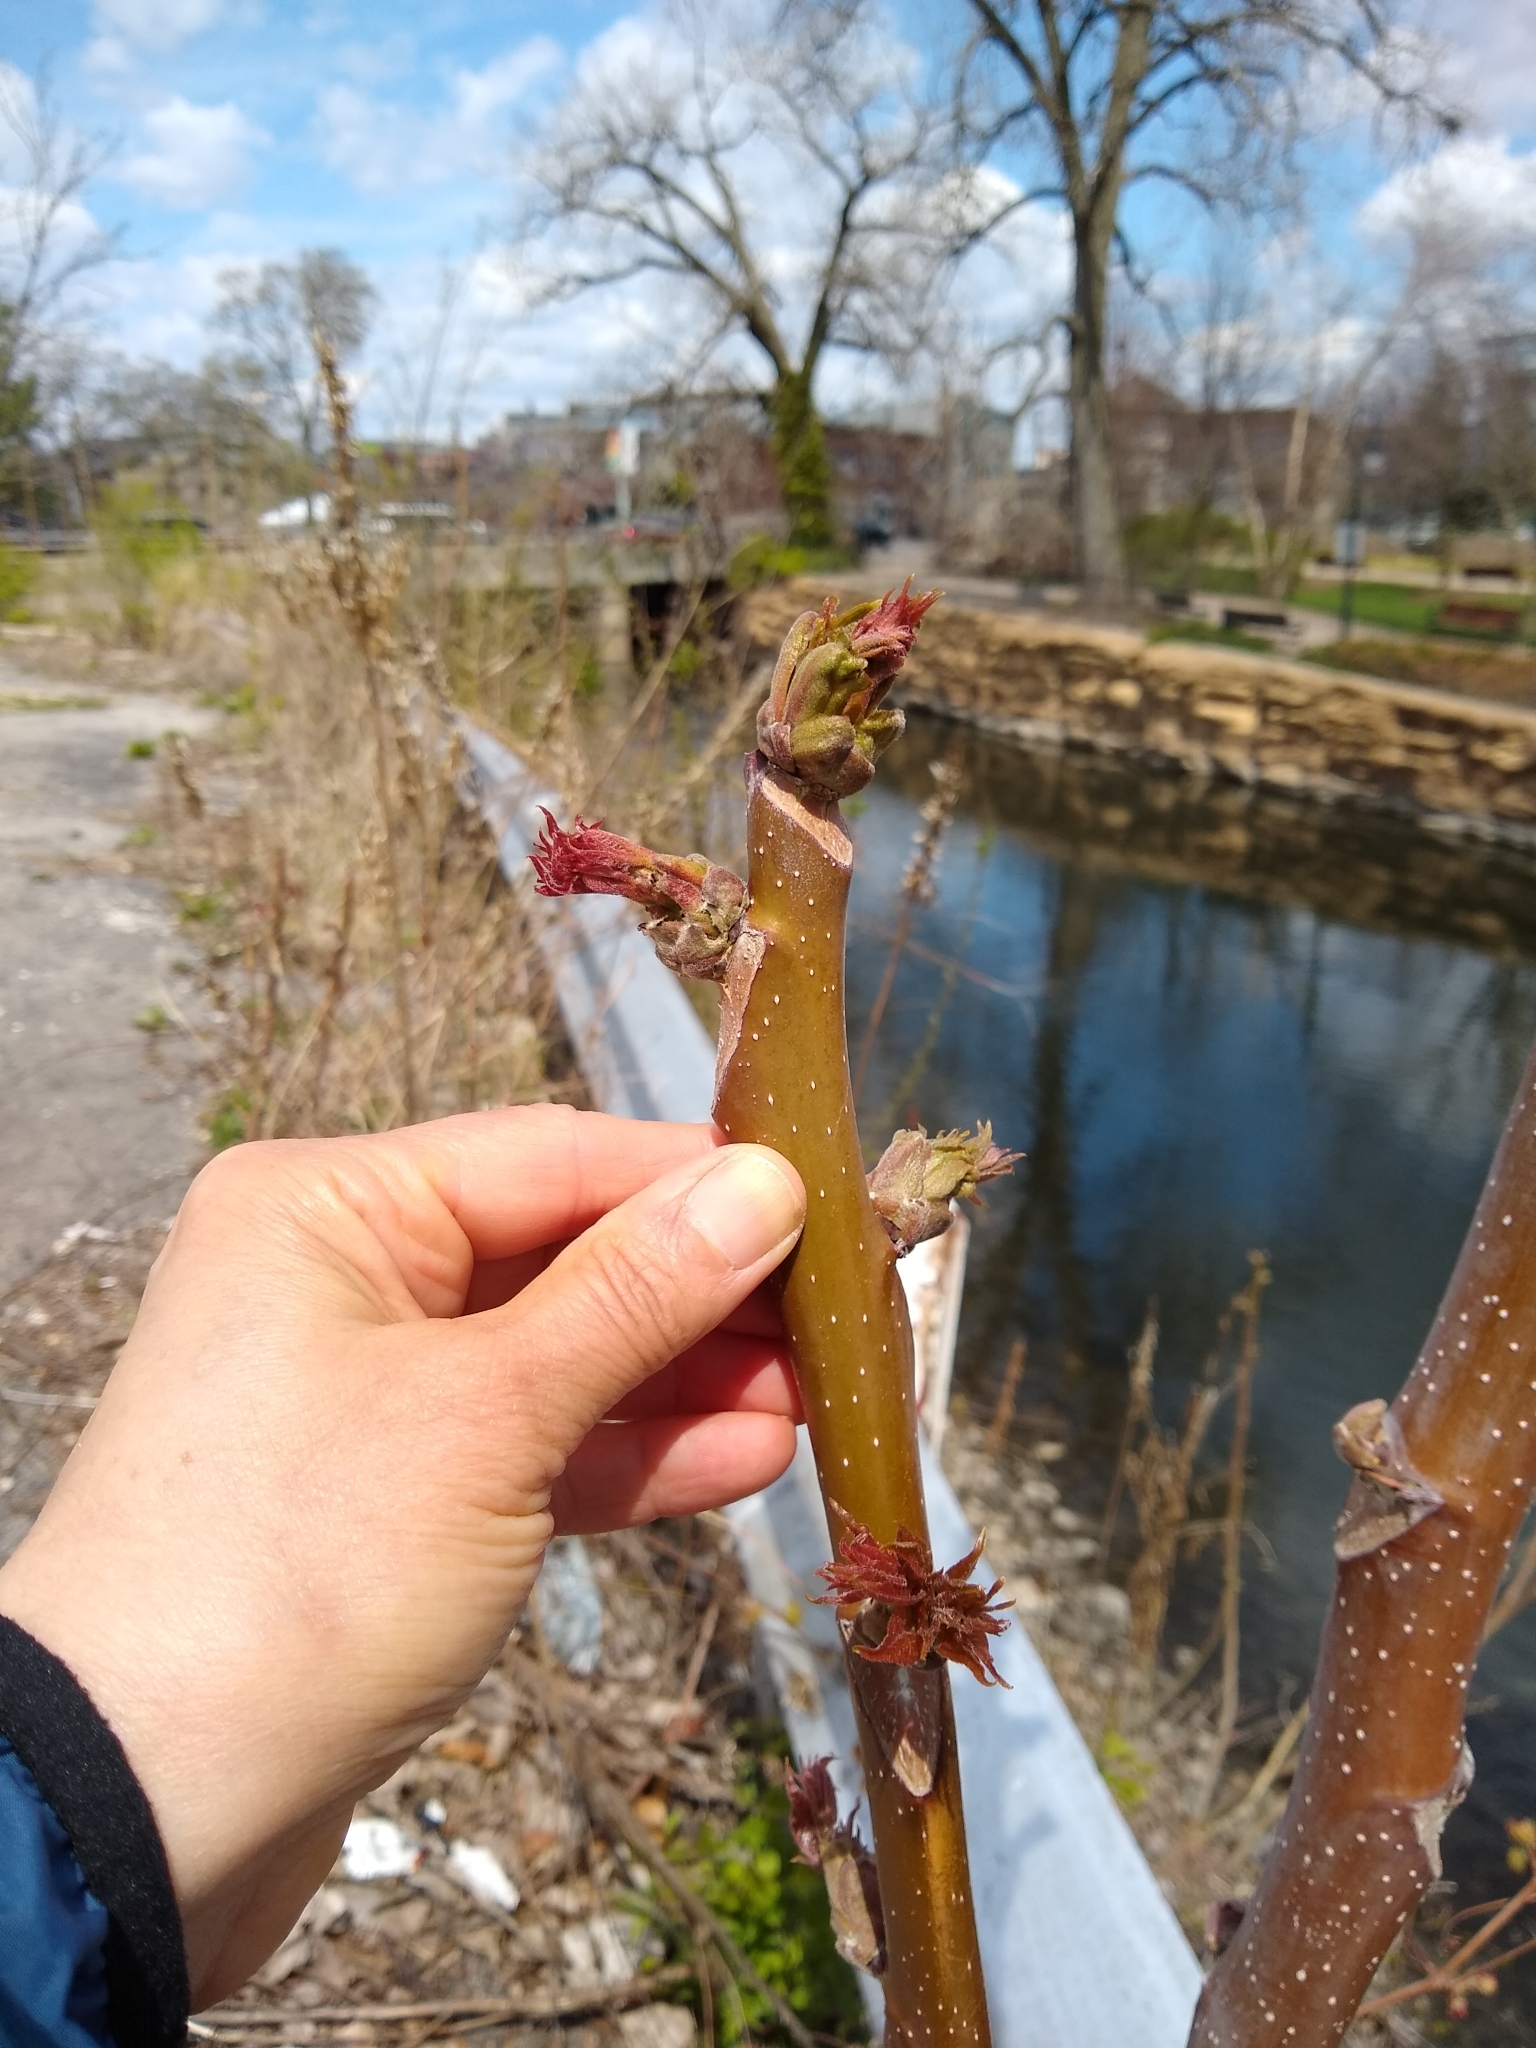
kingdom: Plantae
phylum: Tracheophyta
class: Magnoliopsida
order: Sapindales
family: Simaroubaceae
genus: Ailanthus
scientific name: Ailanthus altissima
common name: Tree-of-heaven
